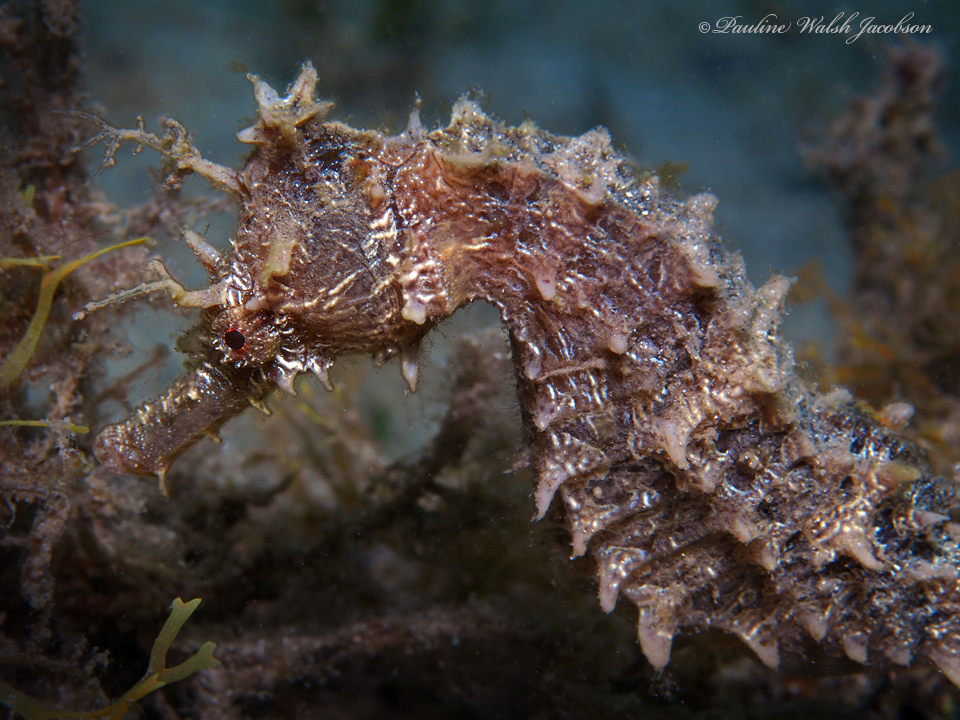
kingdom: Animalia
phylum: Chordata
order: Syngnathiformes
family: Syngnathidae
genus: Hippocampus
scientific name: Hippocampus erectus
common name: Lined seahorse
